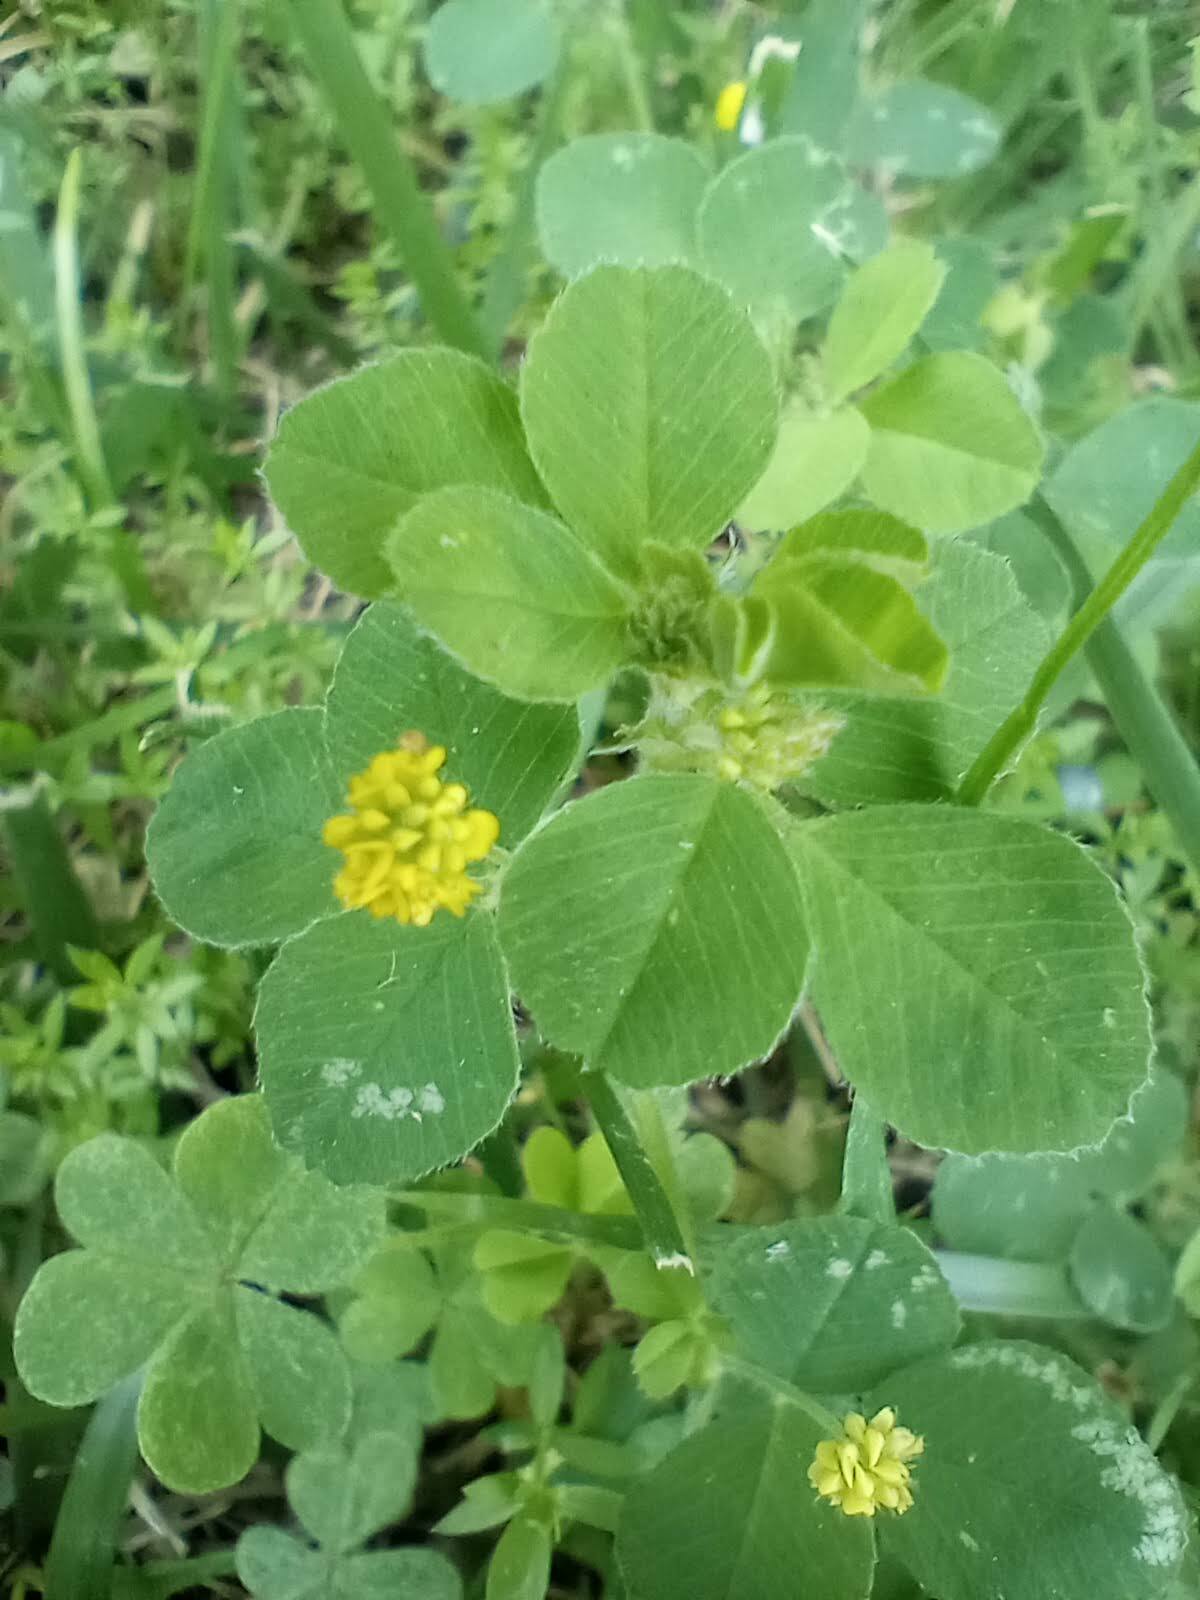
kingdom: Plantae
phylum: Tracheophyta
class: Magnoliopsida
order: Fabales
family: Fabaceae
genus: Medicago
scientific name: Medicago lupulina
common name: Black medick
